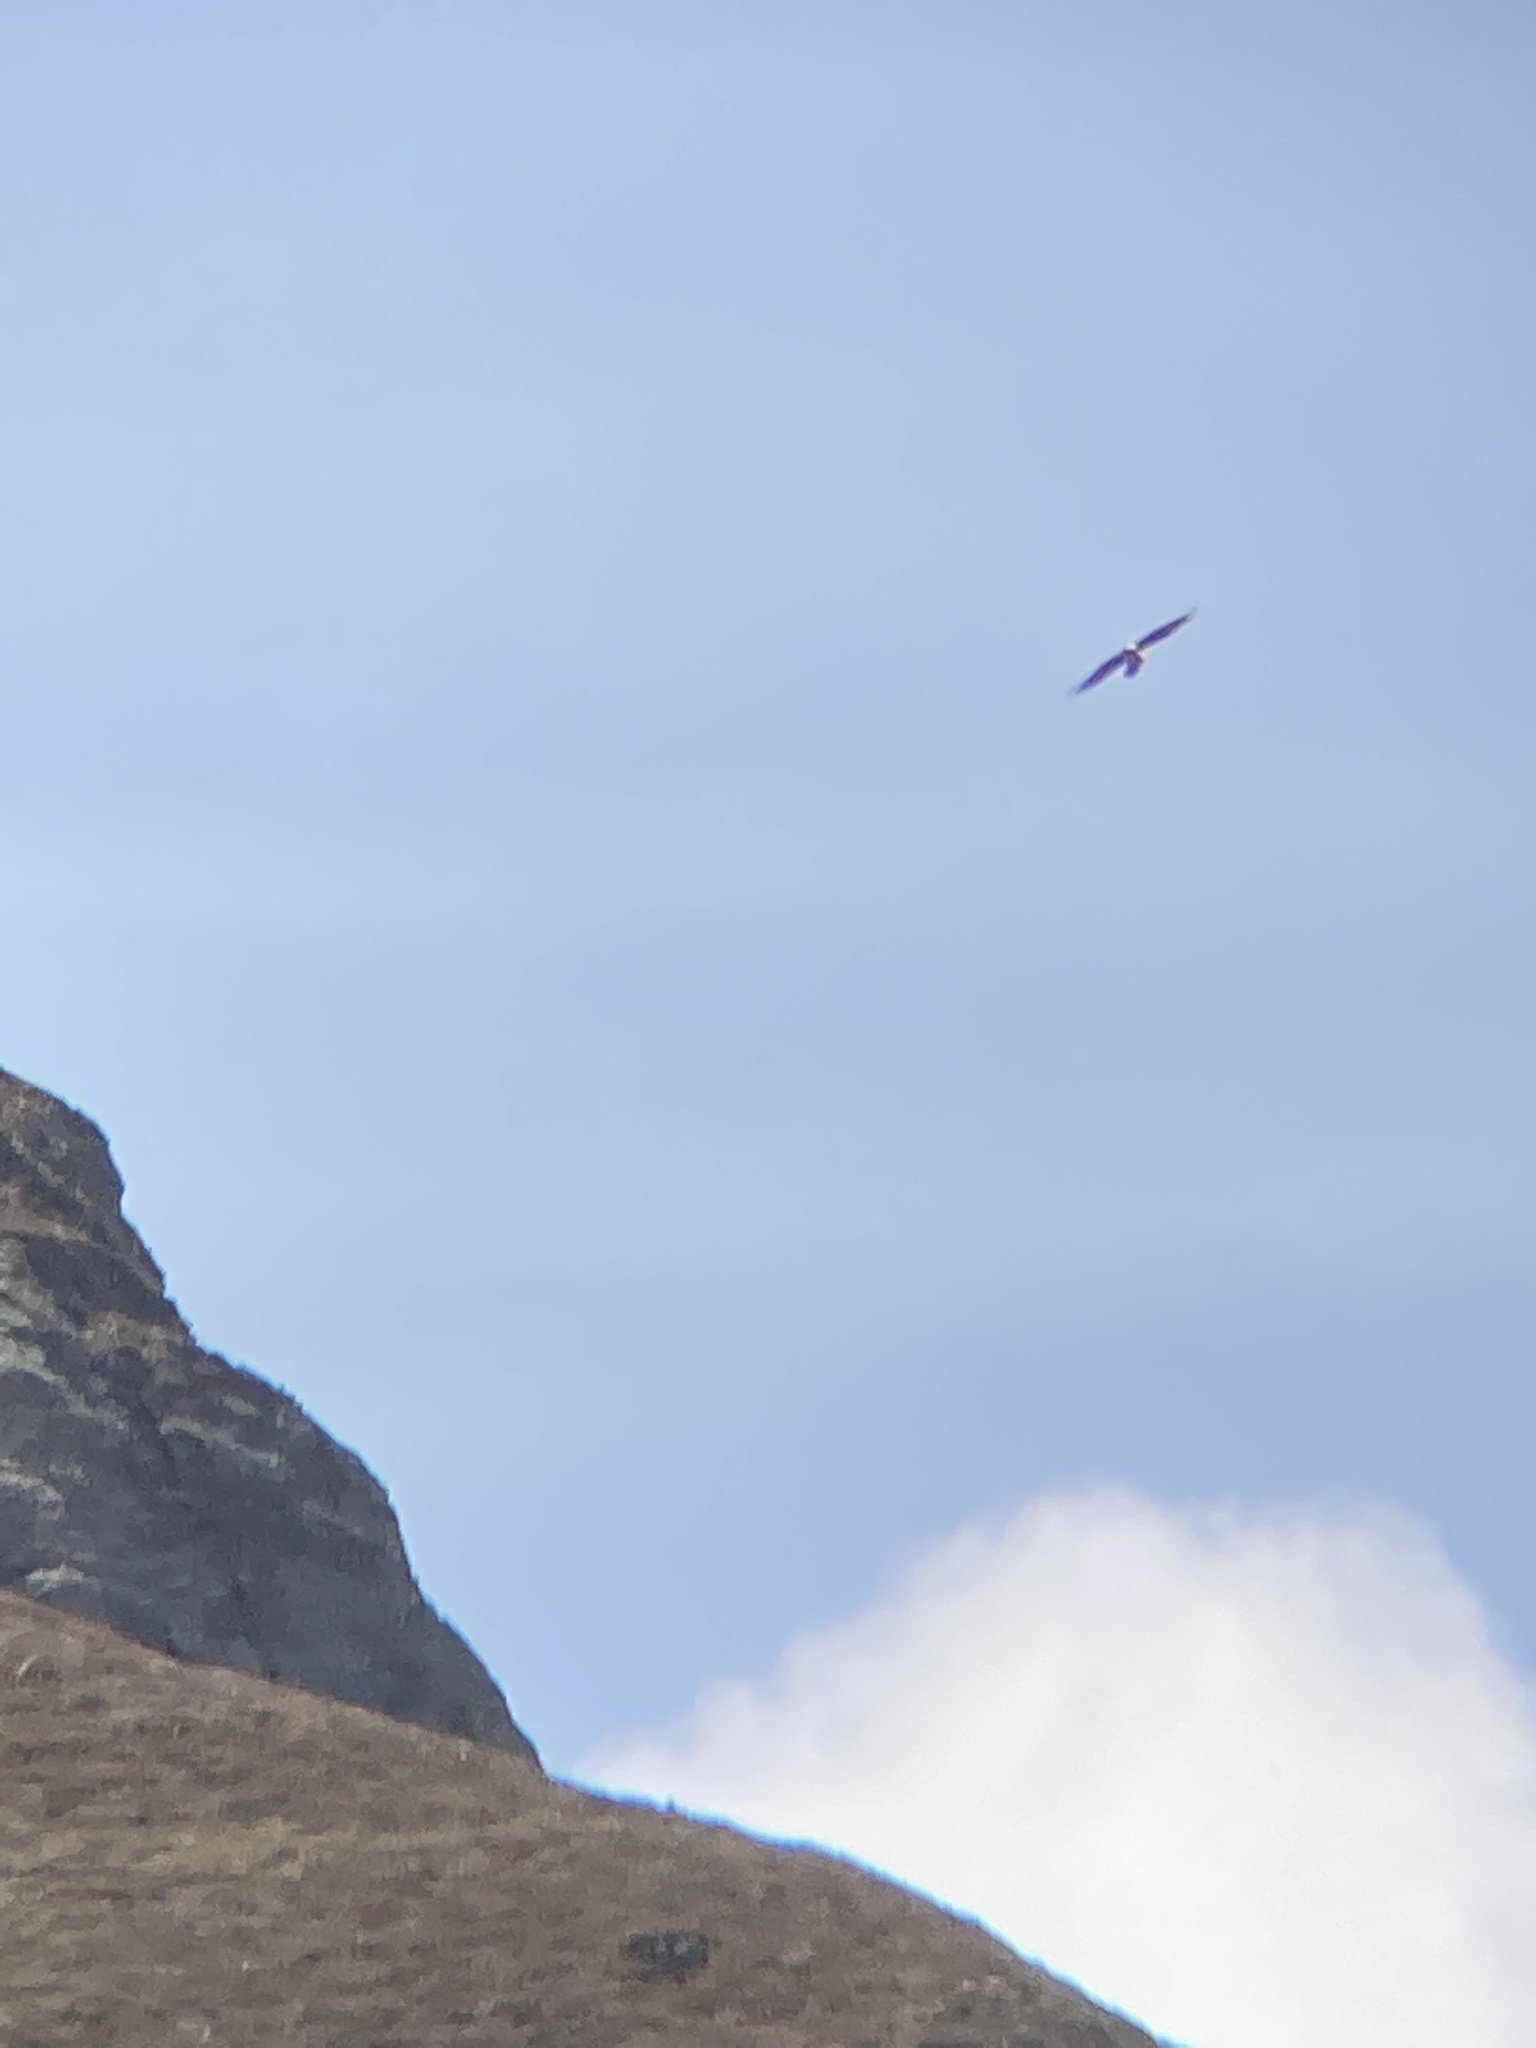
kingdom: Animalia
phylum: Chordata
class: Aves
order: Accipitriformes
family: Accipitridae
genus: Gypaetus
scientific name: Gypaetus barbatus
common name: Bearded vulture
